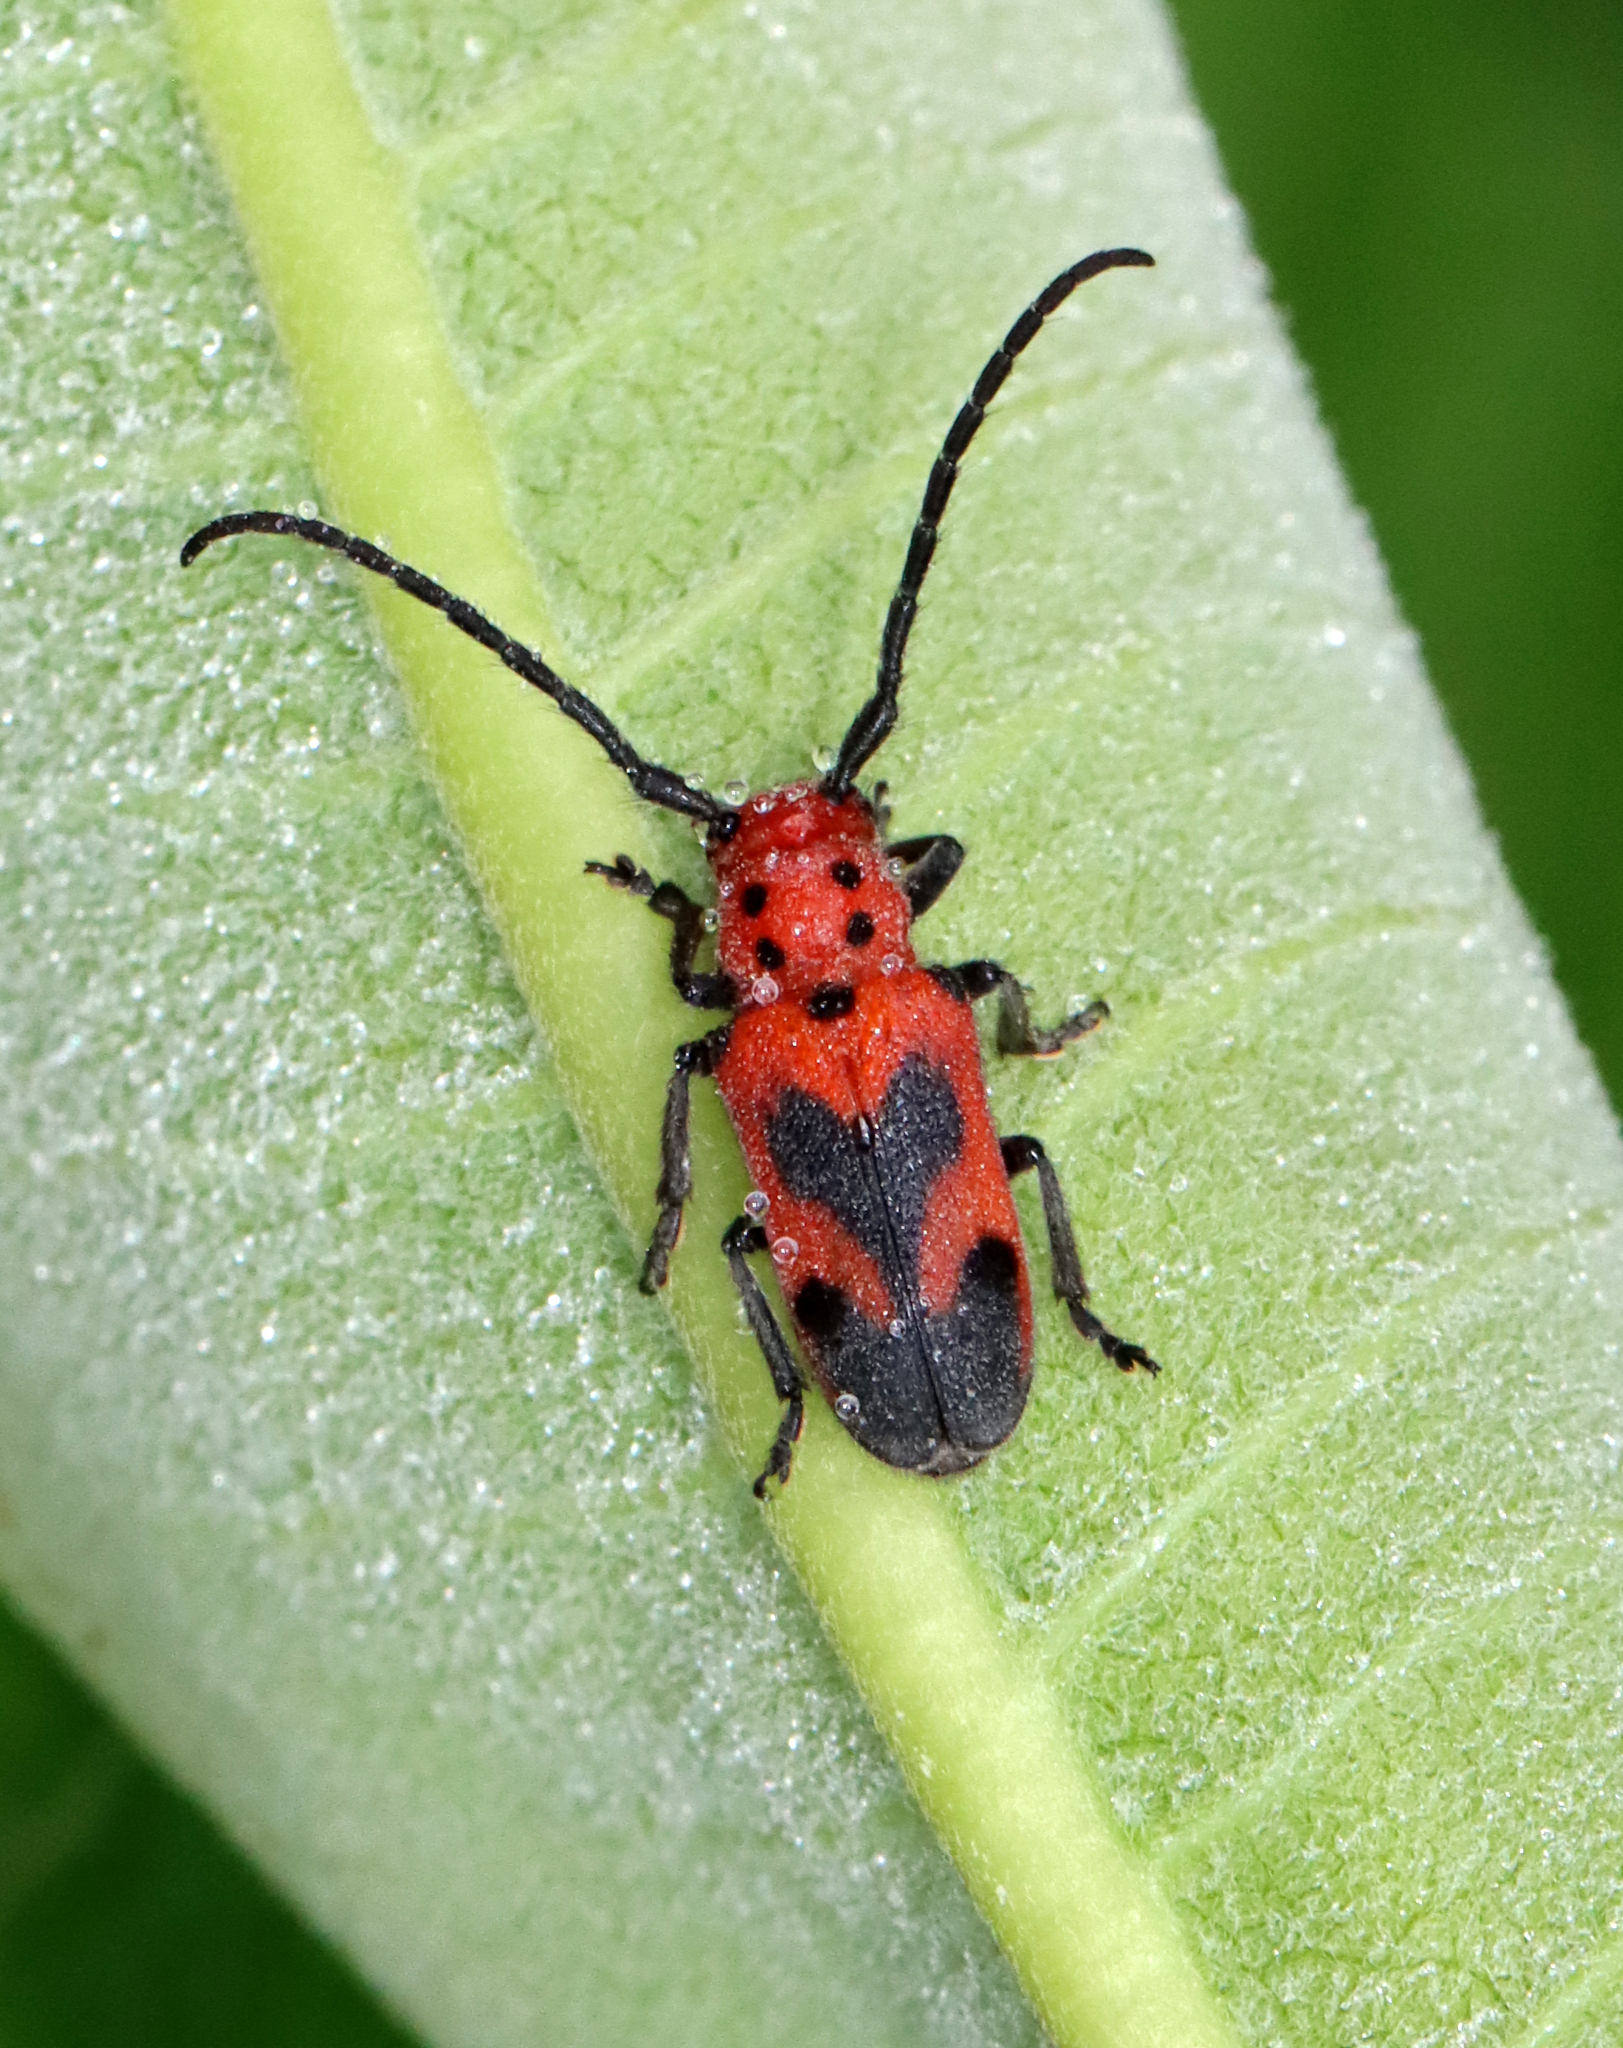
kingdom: Animalia
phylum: Arthropoda
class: Insecta
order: Coleoptera
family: Cerambycidae
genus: Tetraopes
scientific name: Tetraopes melanurus
